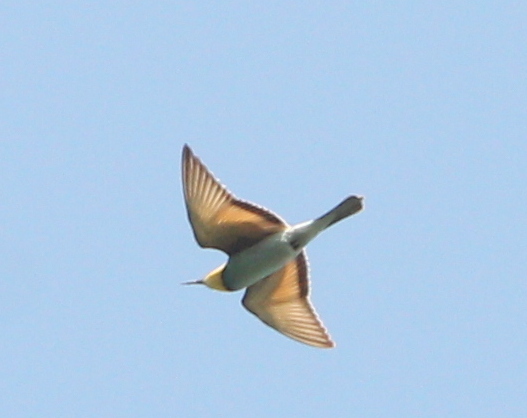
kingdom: Animalia
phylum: Chordata
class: Aves
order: Coraciiformes
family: Meropidae
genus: Merops
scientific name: Merops apiaster
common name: European bee-eater
